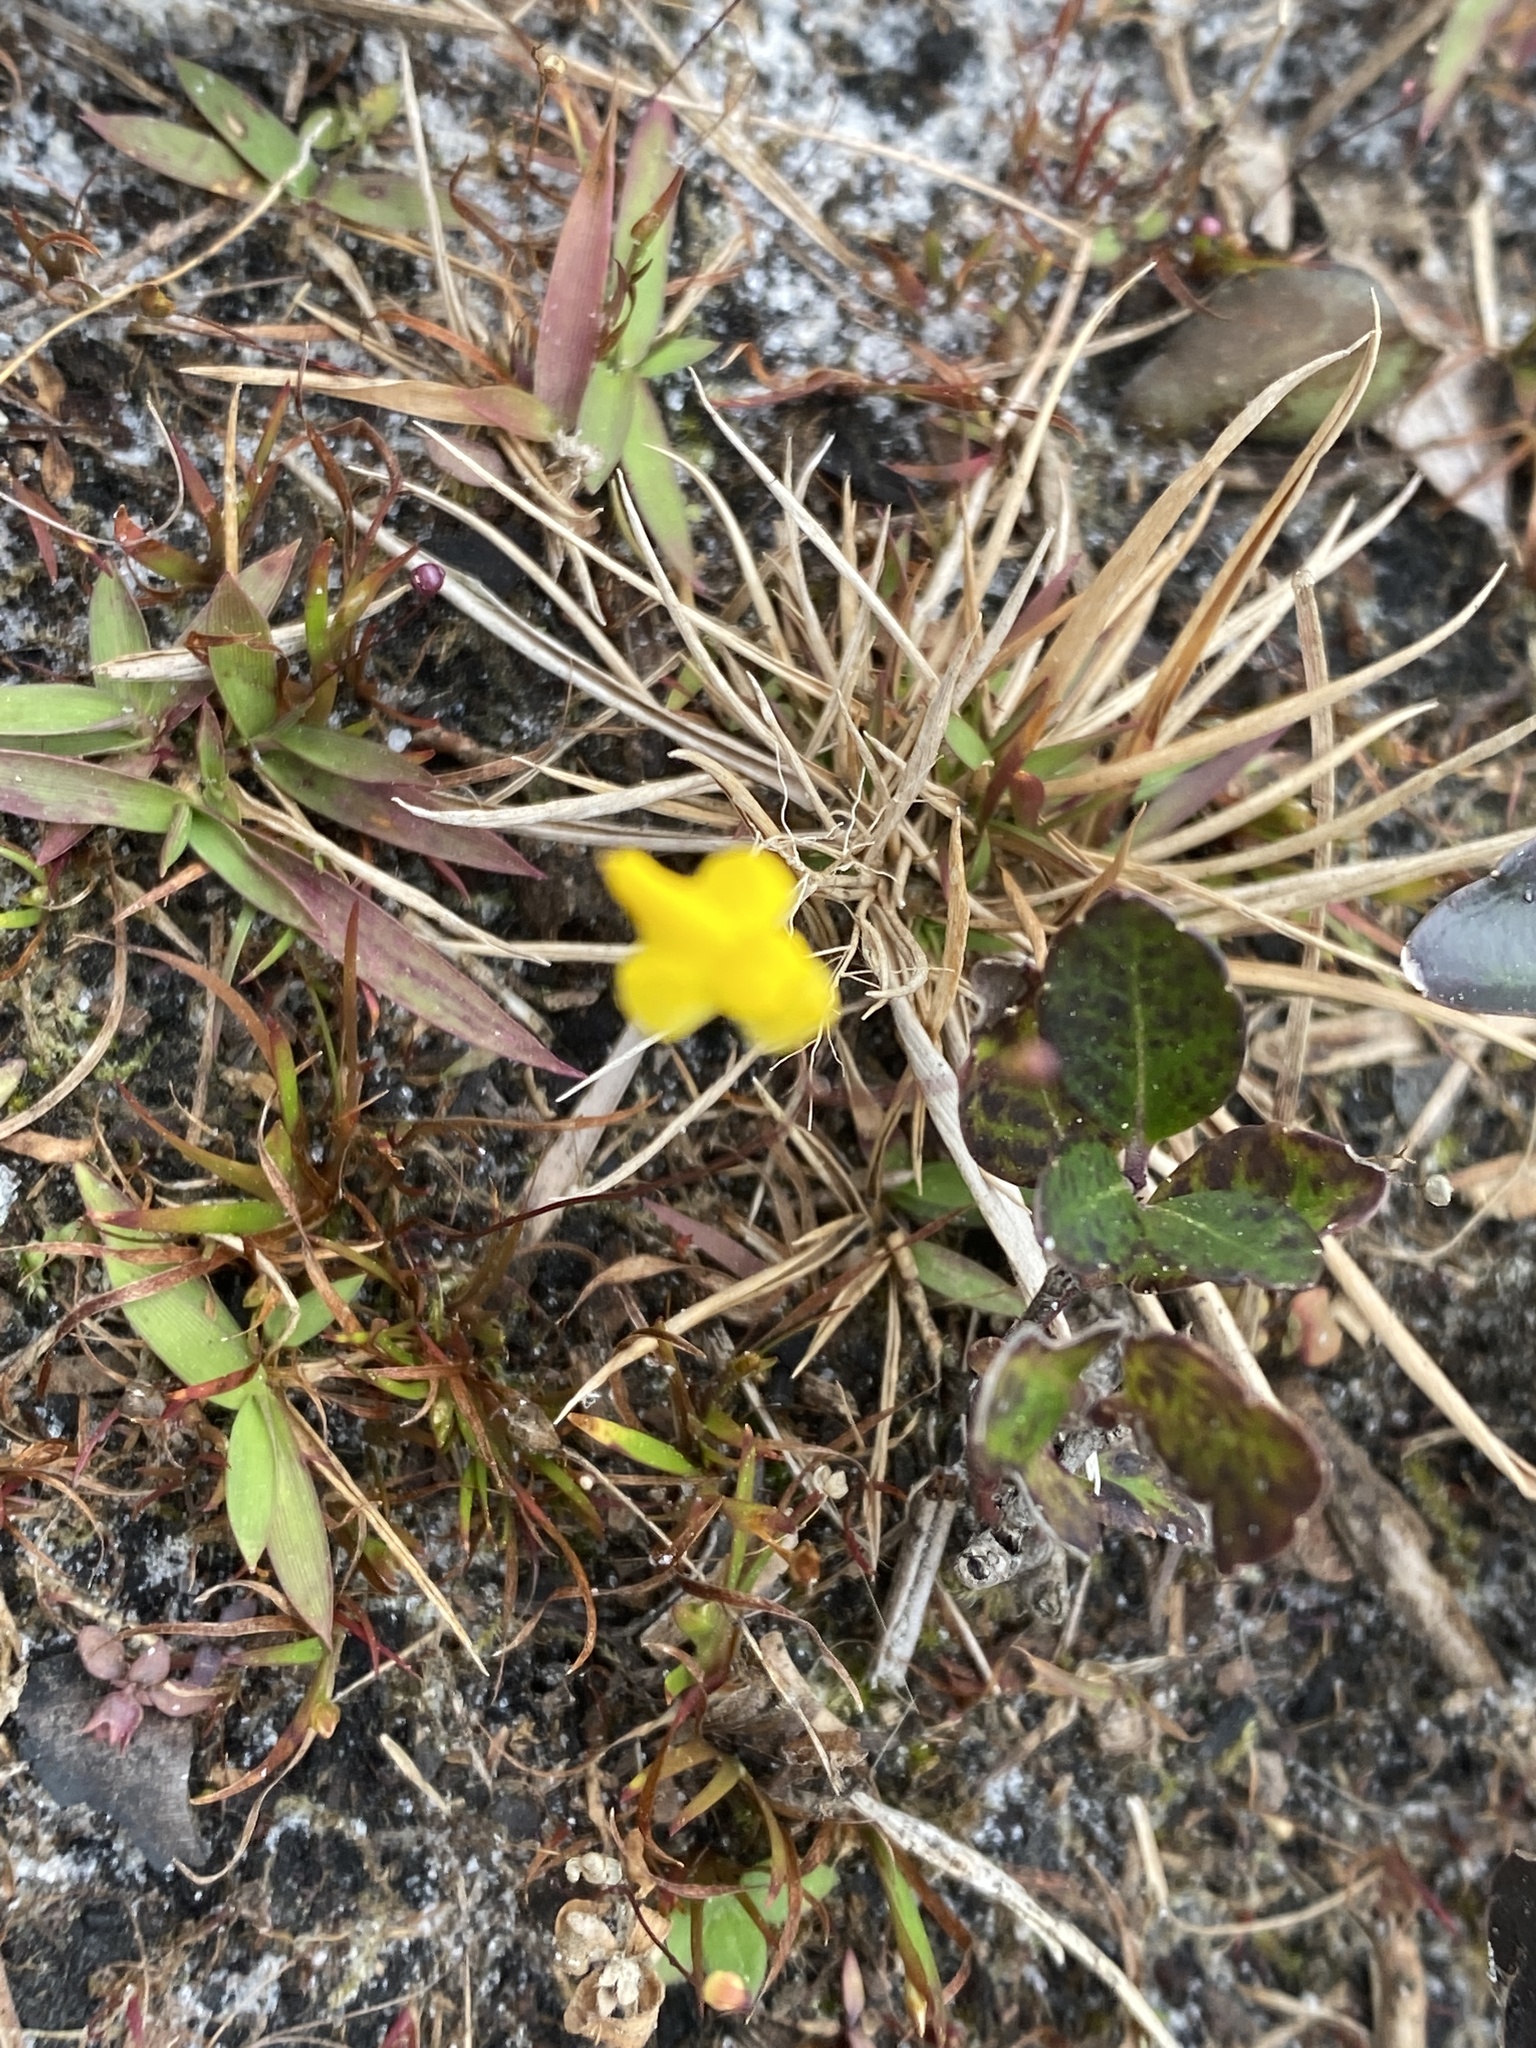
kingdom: Plantae
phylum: Tracheophyta
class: Magnoliopsida
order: Lamiales
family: Lentibulariaceae
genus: Utricularia
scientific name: Utricularia subulata
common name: Tiny bladderwort
